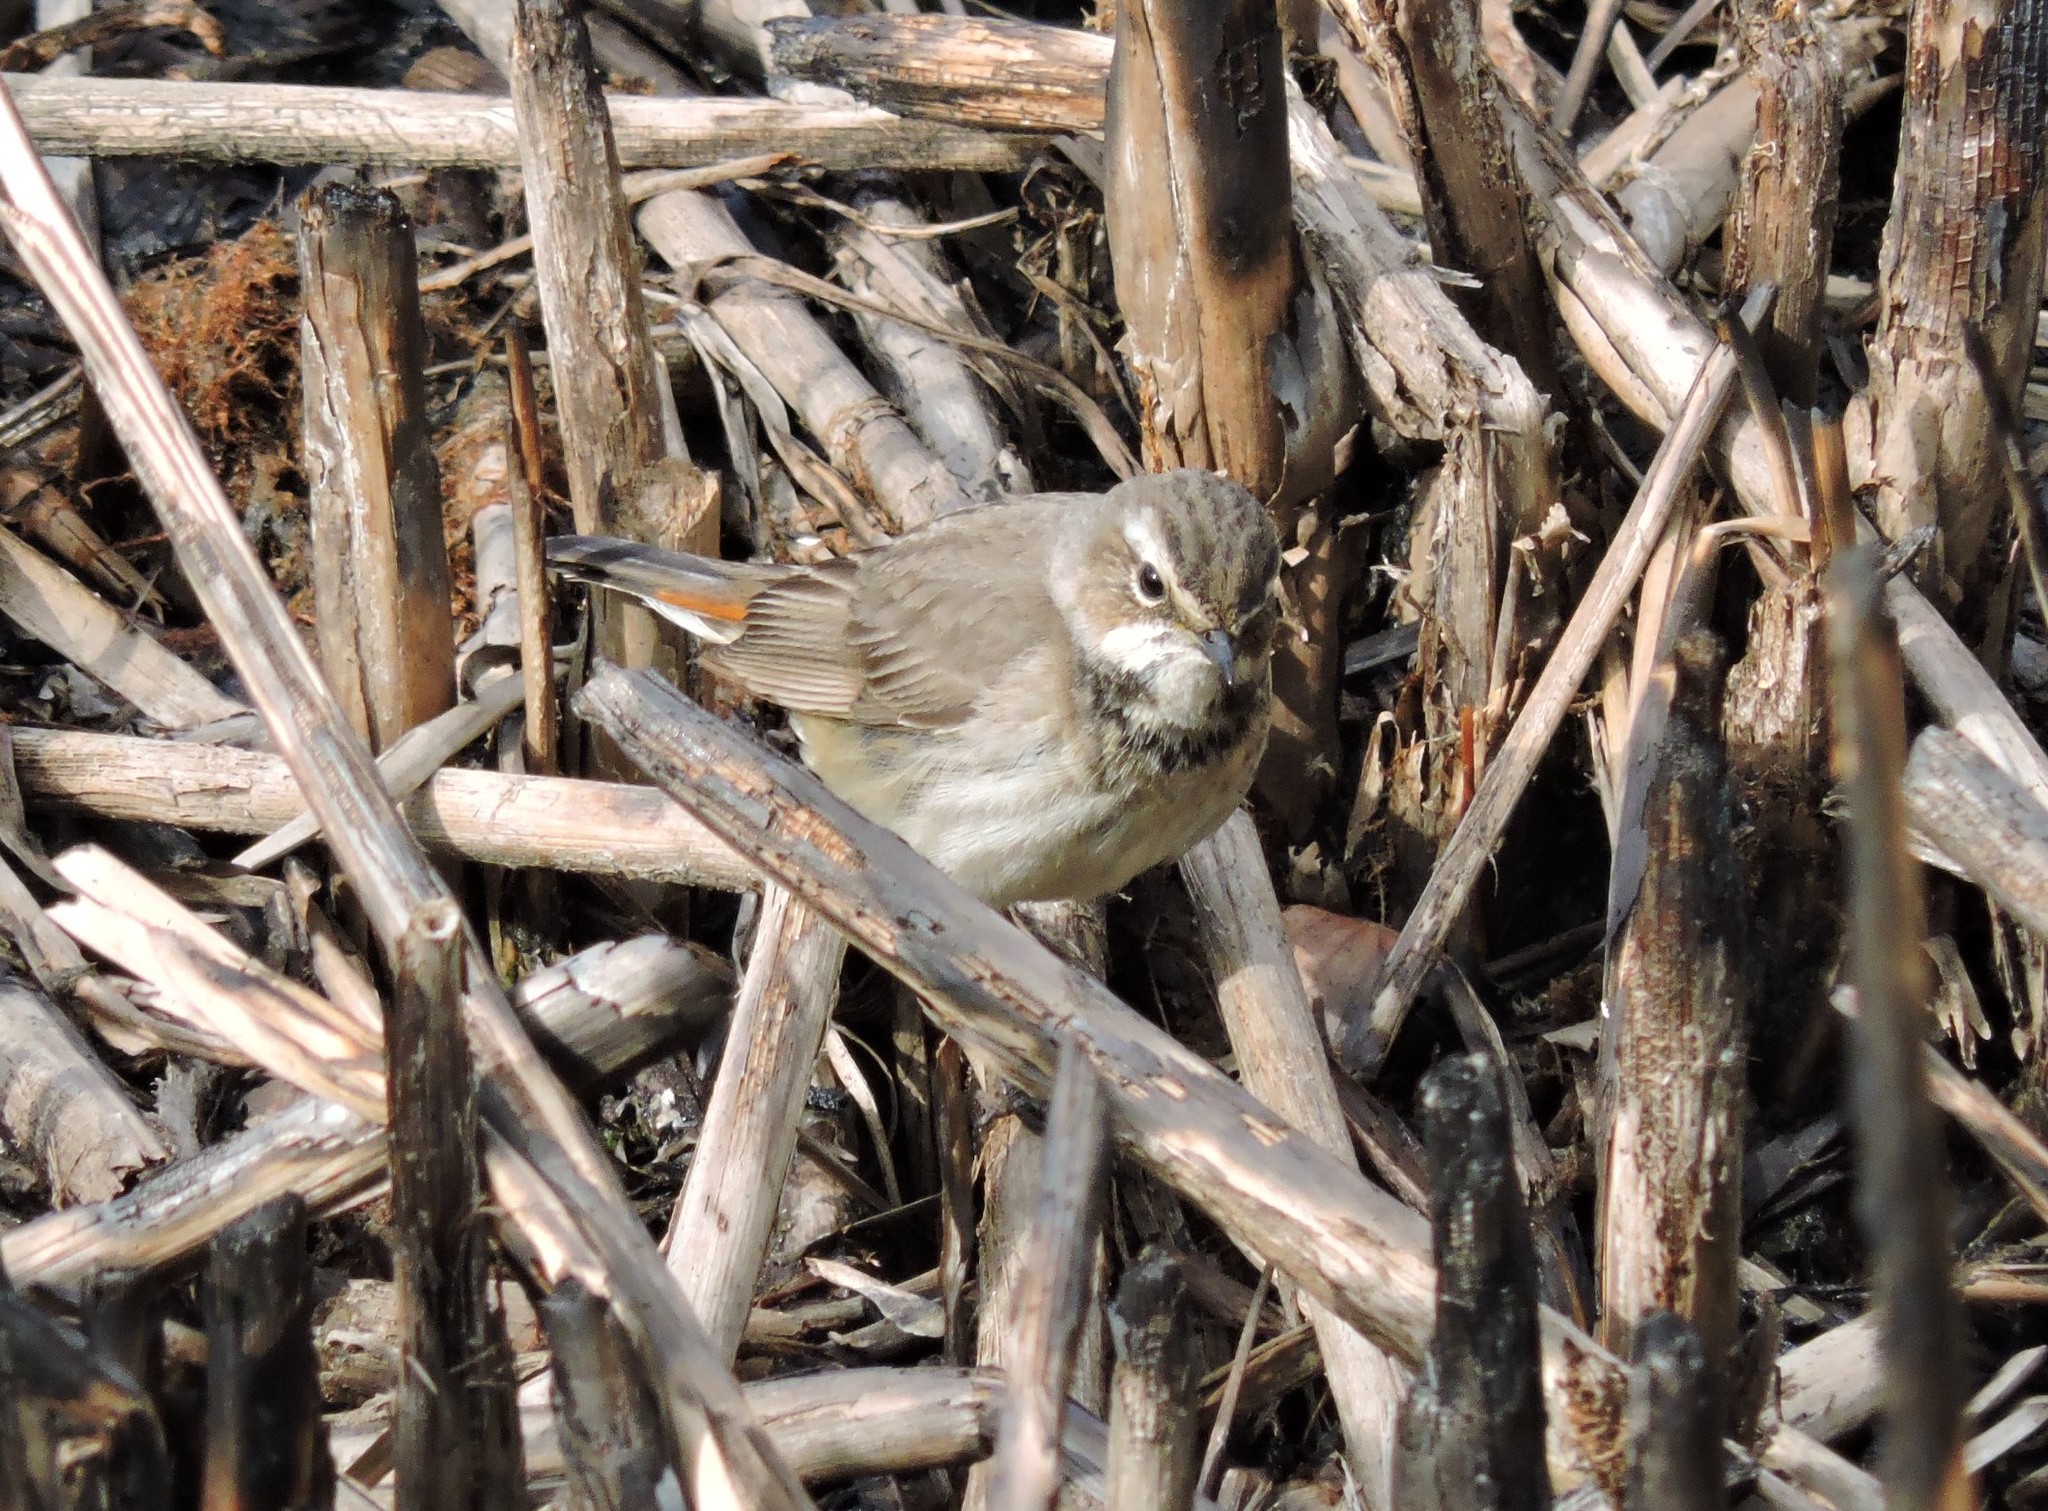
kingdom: Animalia
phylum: Chordata
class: Aves
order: Passeriformes
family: Muscicapidae
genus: Luscinia
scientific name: Luscinia svecica
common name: Bluethroat
